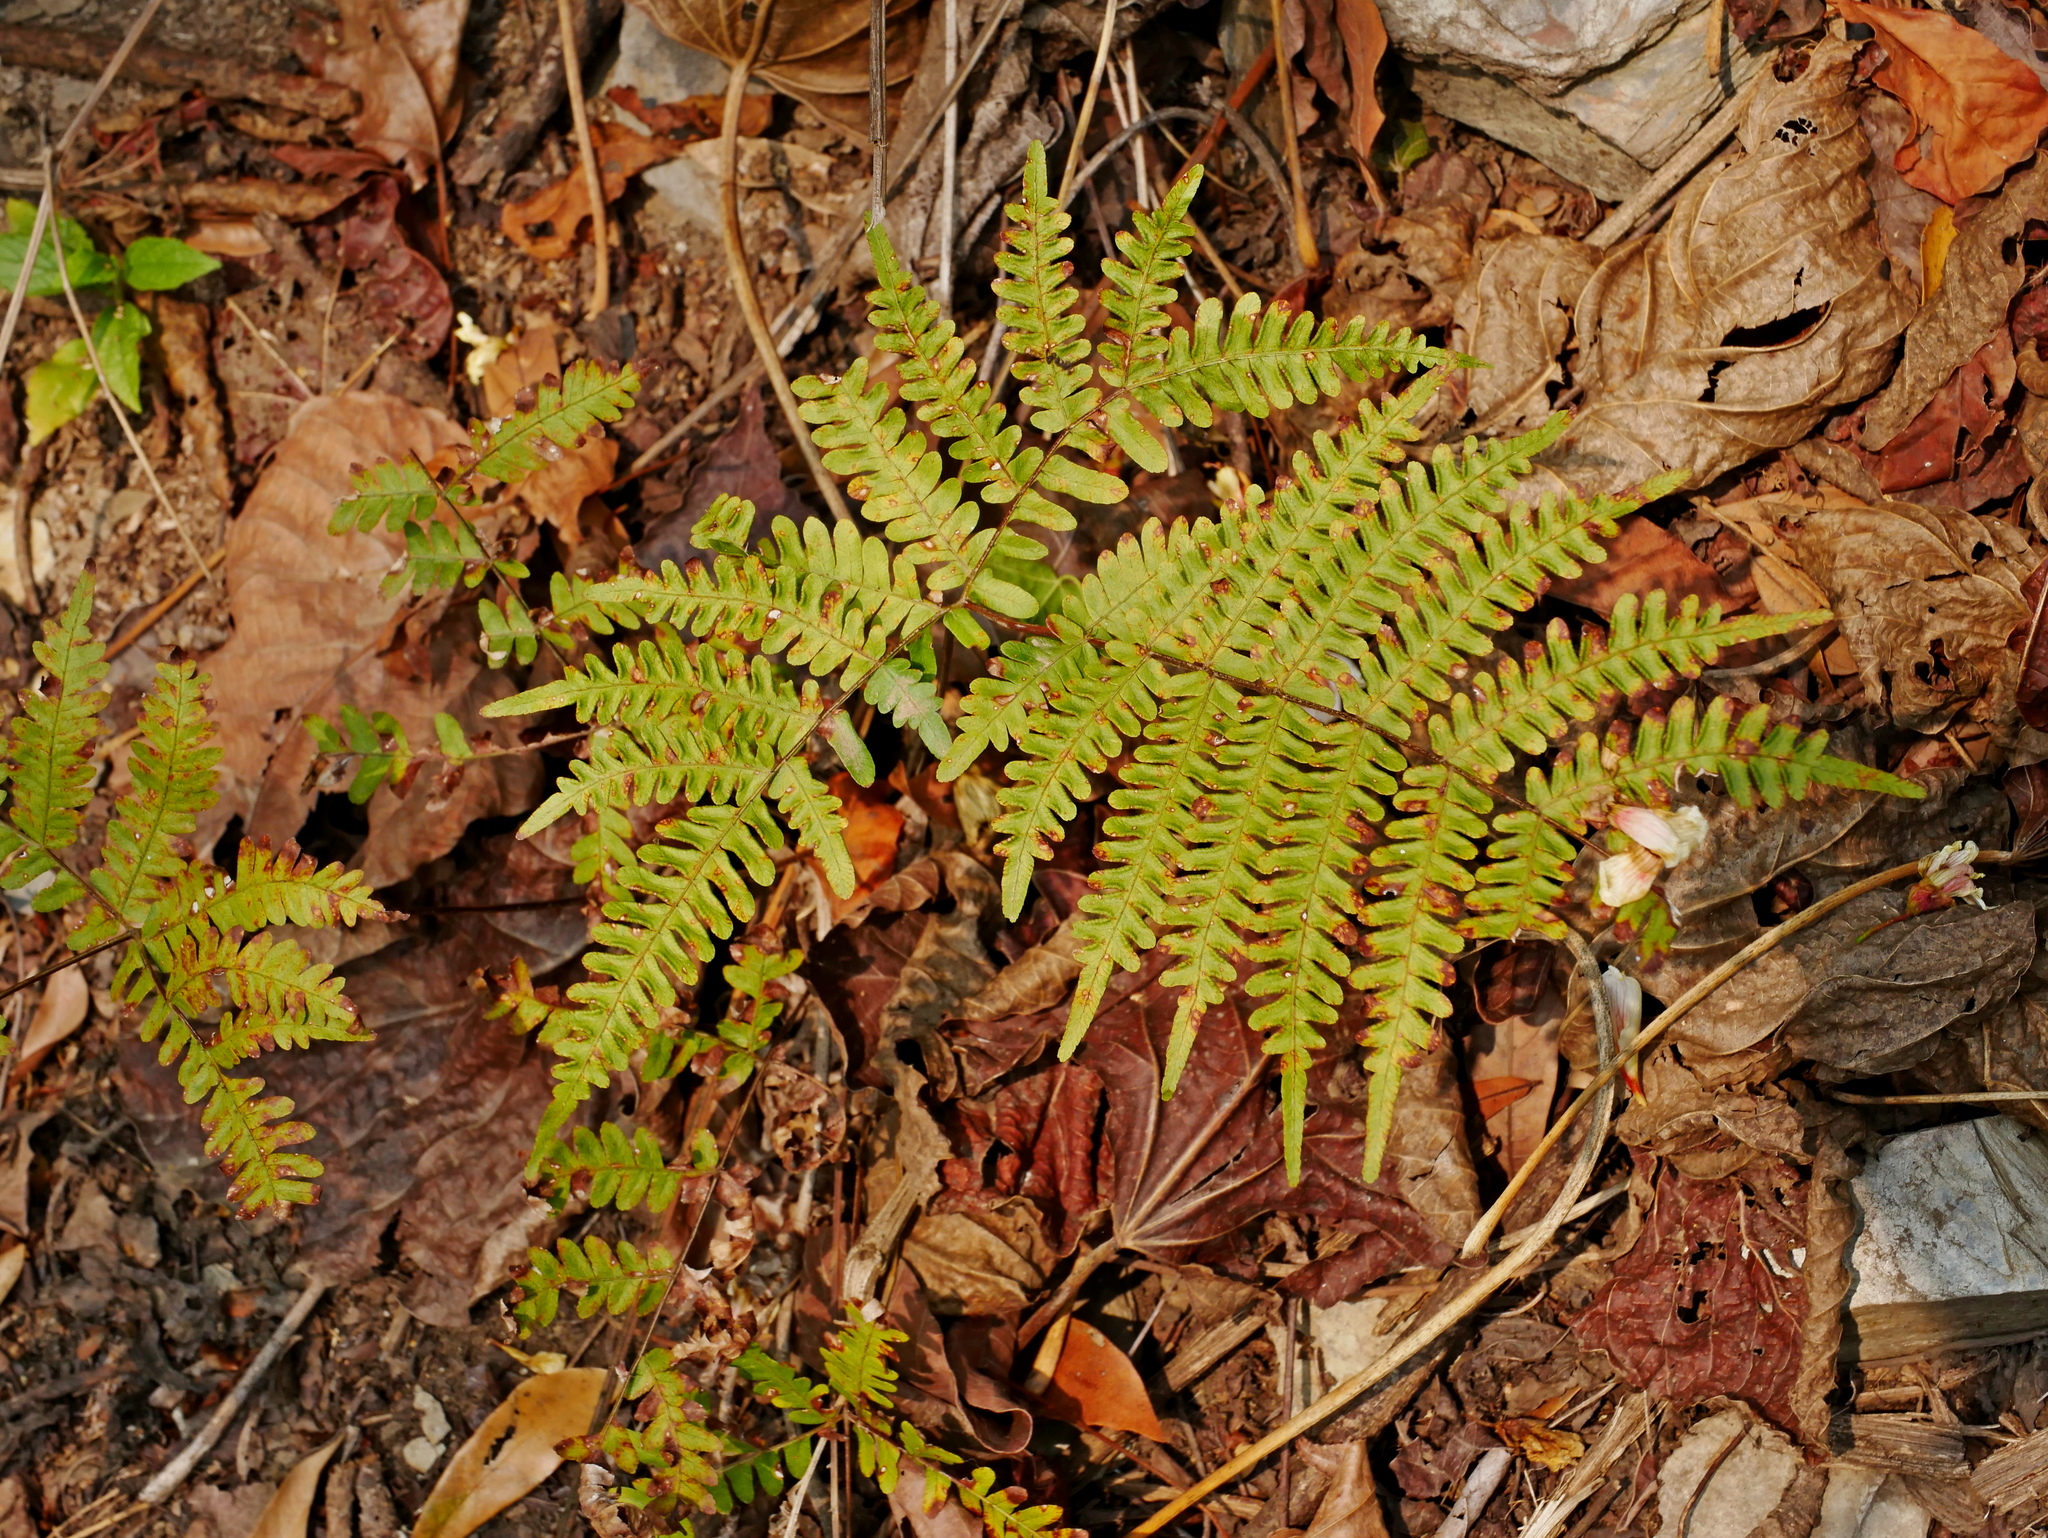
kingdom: Plantae
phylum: Tracheophyta
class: Polypodiopsida
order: Polypodiales
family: Pteridaceae
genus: Pteris
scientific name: Pteris longipes
